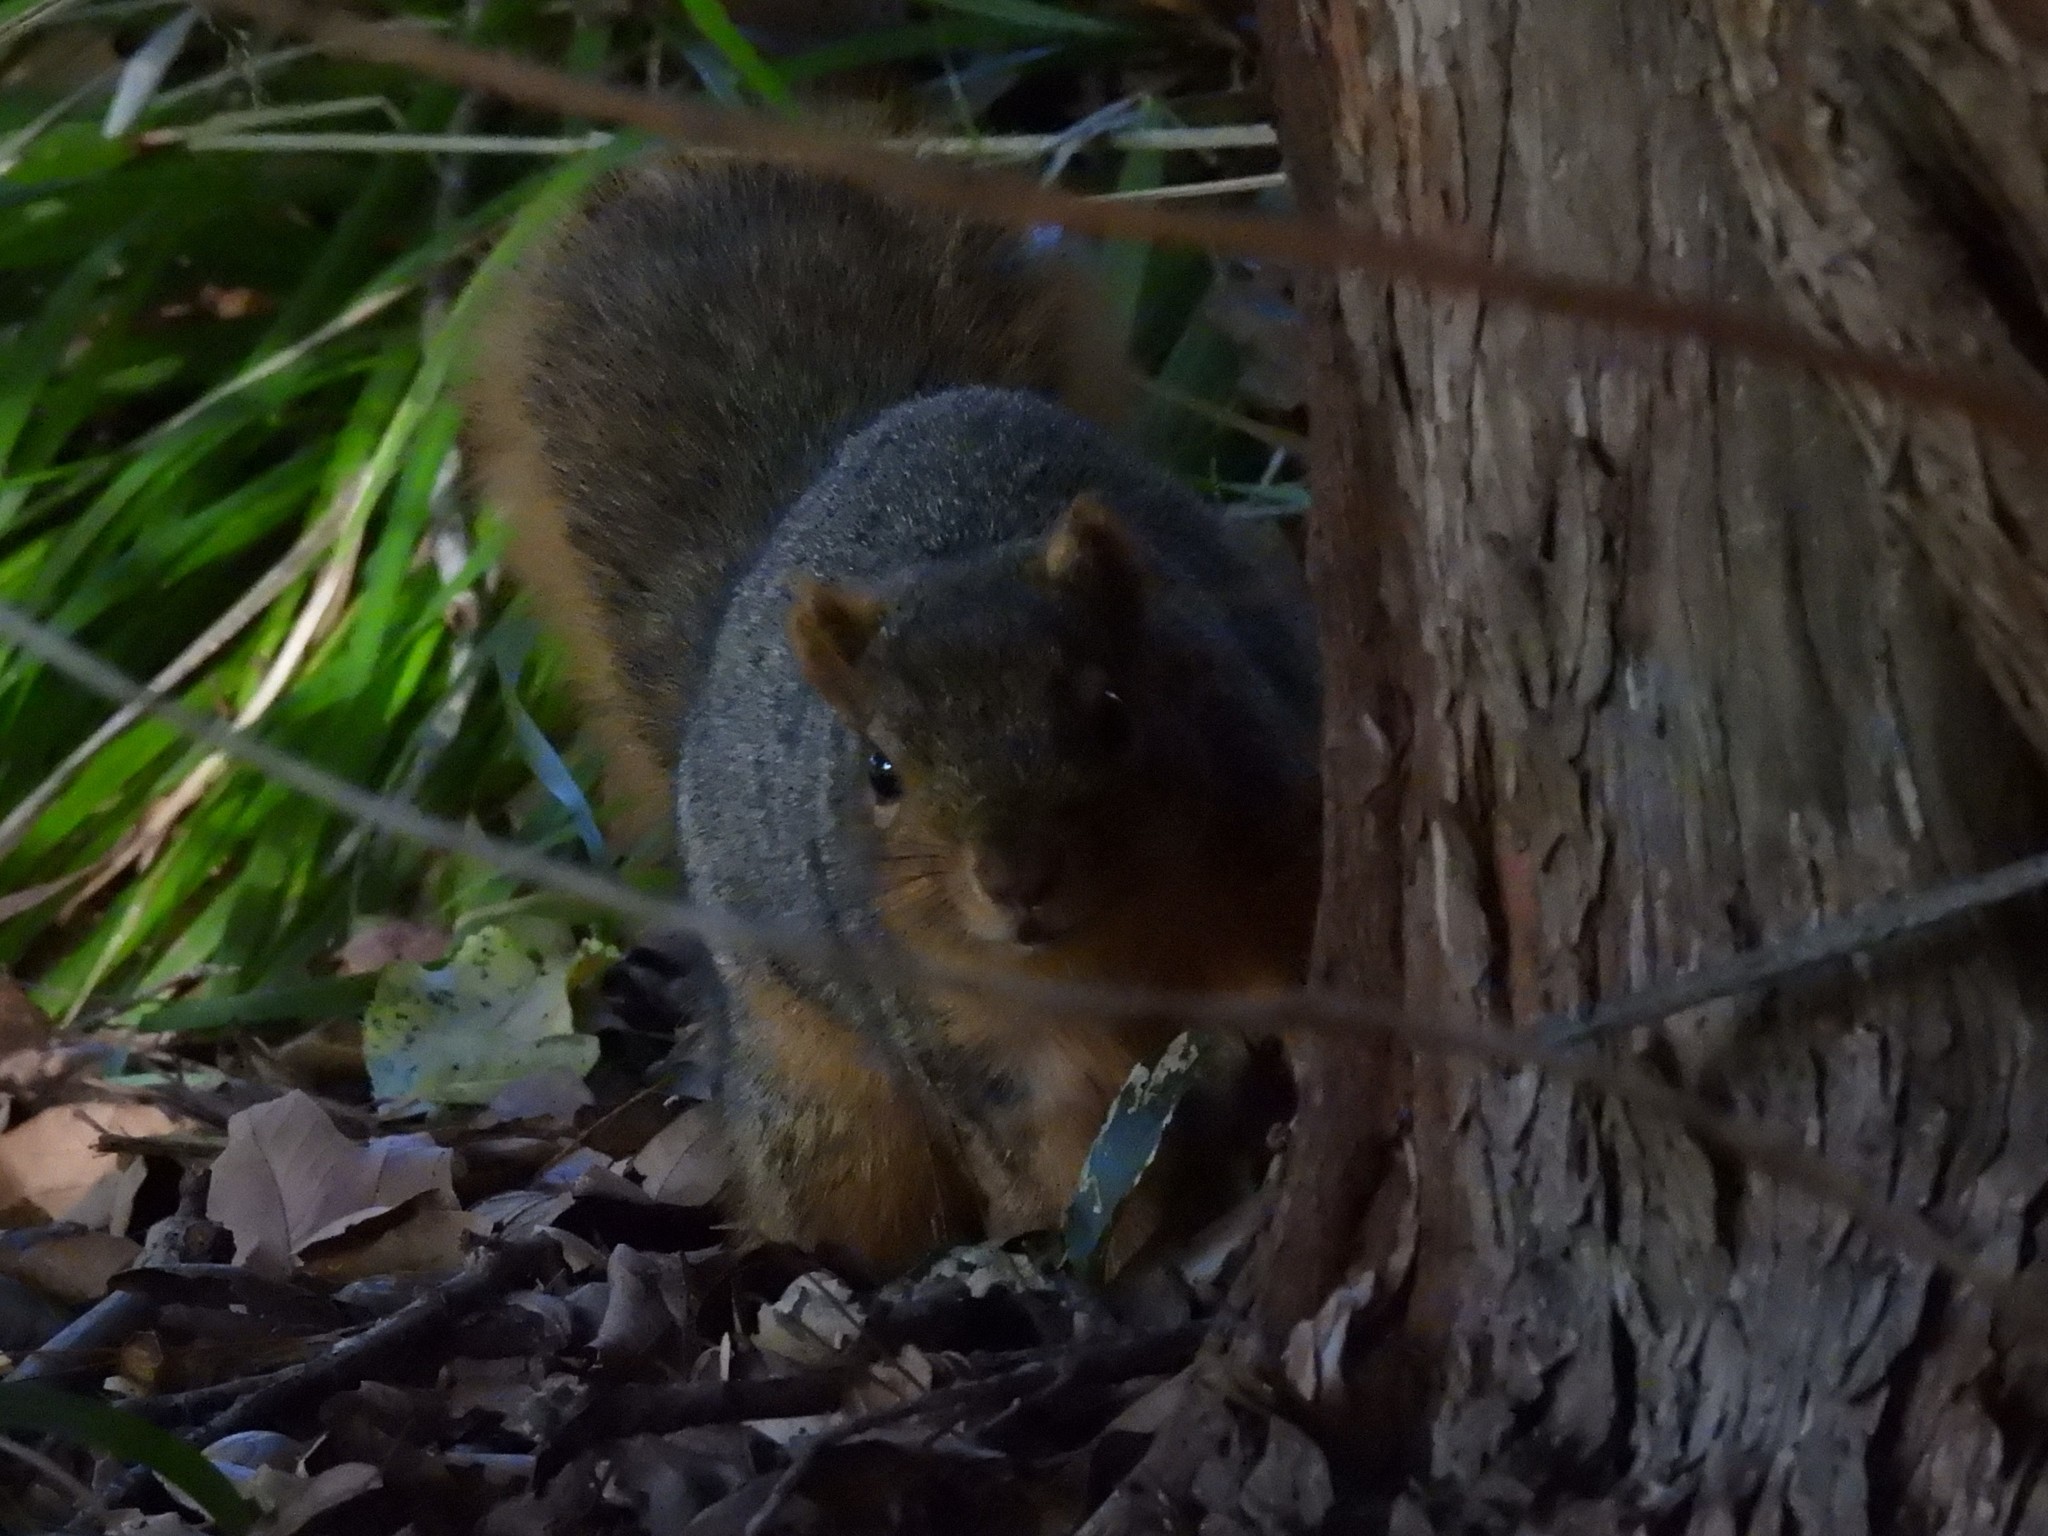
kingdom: Animalia
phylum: Chordata
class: Mammalia
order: Rodentia
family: Sciuridae
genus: Sciurus
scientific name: Sciurus niger
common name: Fox squirrel
